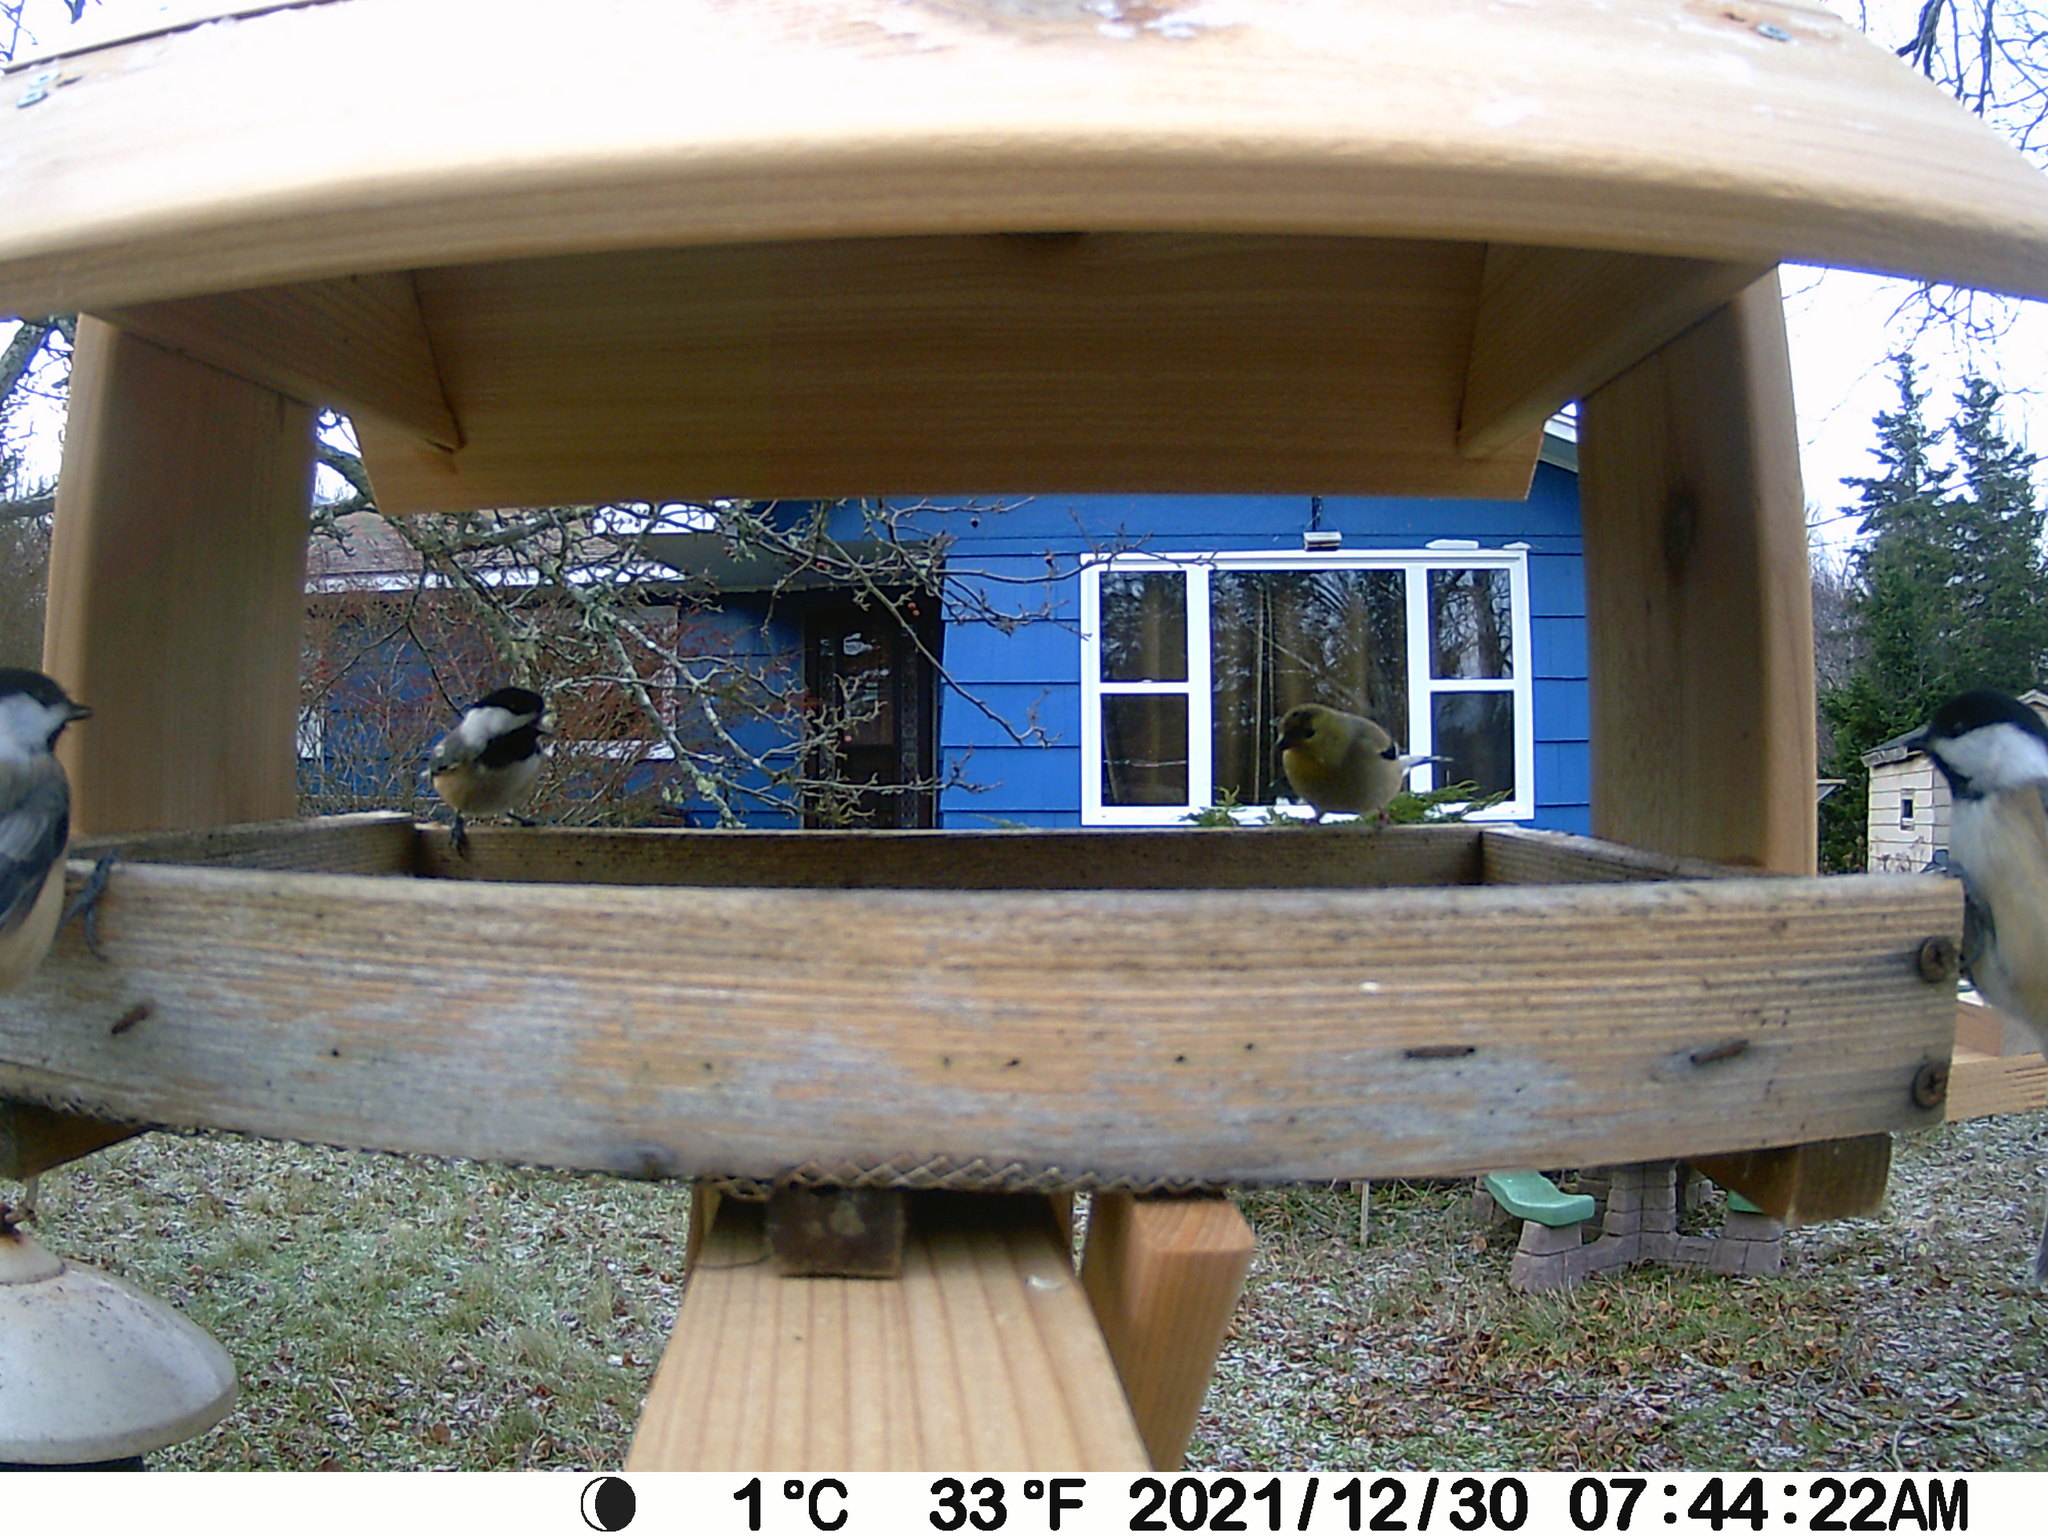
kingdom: Animalia
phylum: Chordata
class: Aves
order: Passeriformes
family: Fringillidae
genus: Spinus
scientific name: Spinus tristis
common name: American goldfinch
